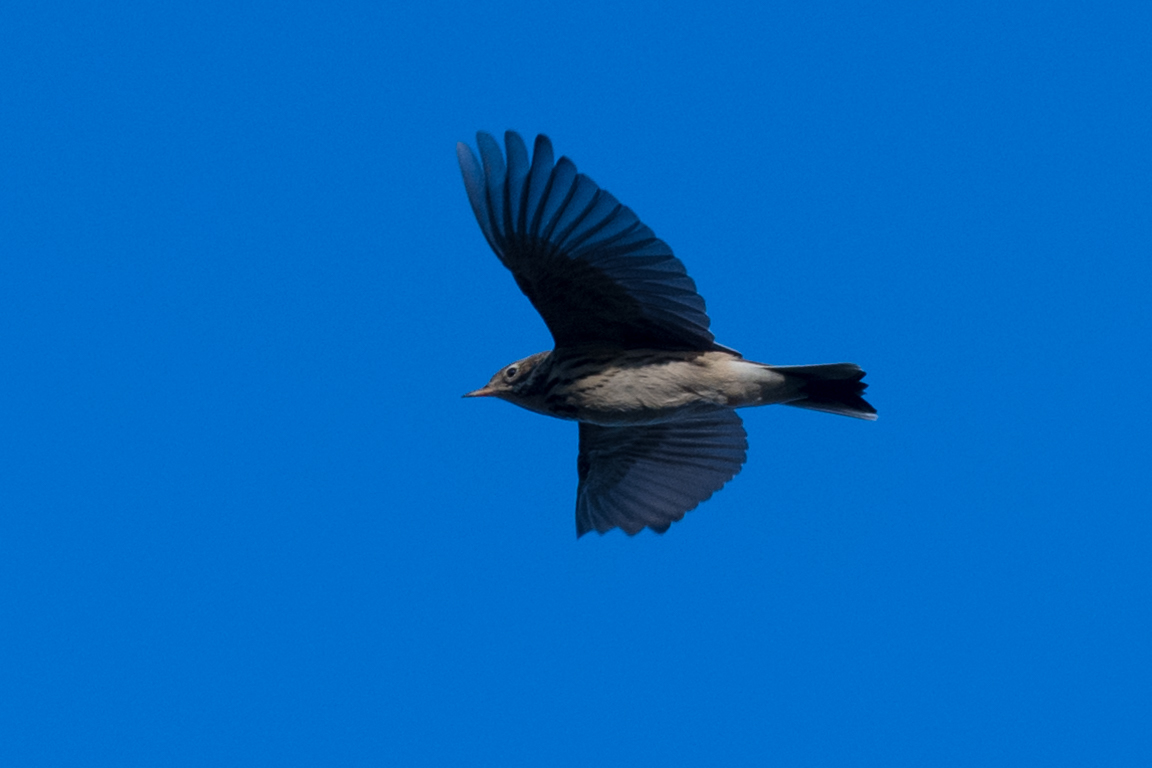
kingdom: Animalia
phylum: Chordata
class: Aves
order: Passeriformes
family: Motacillidae
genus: Anthus
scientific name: Anthus pratensis
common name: Meadow pipit
